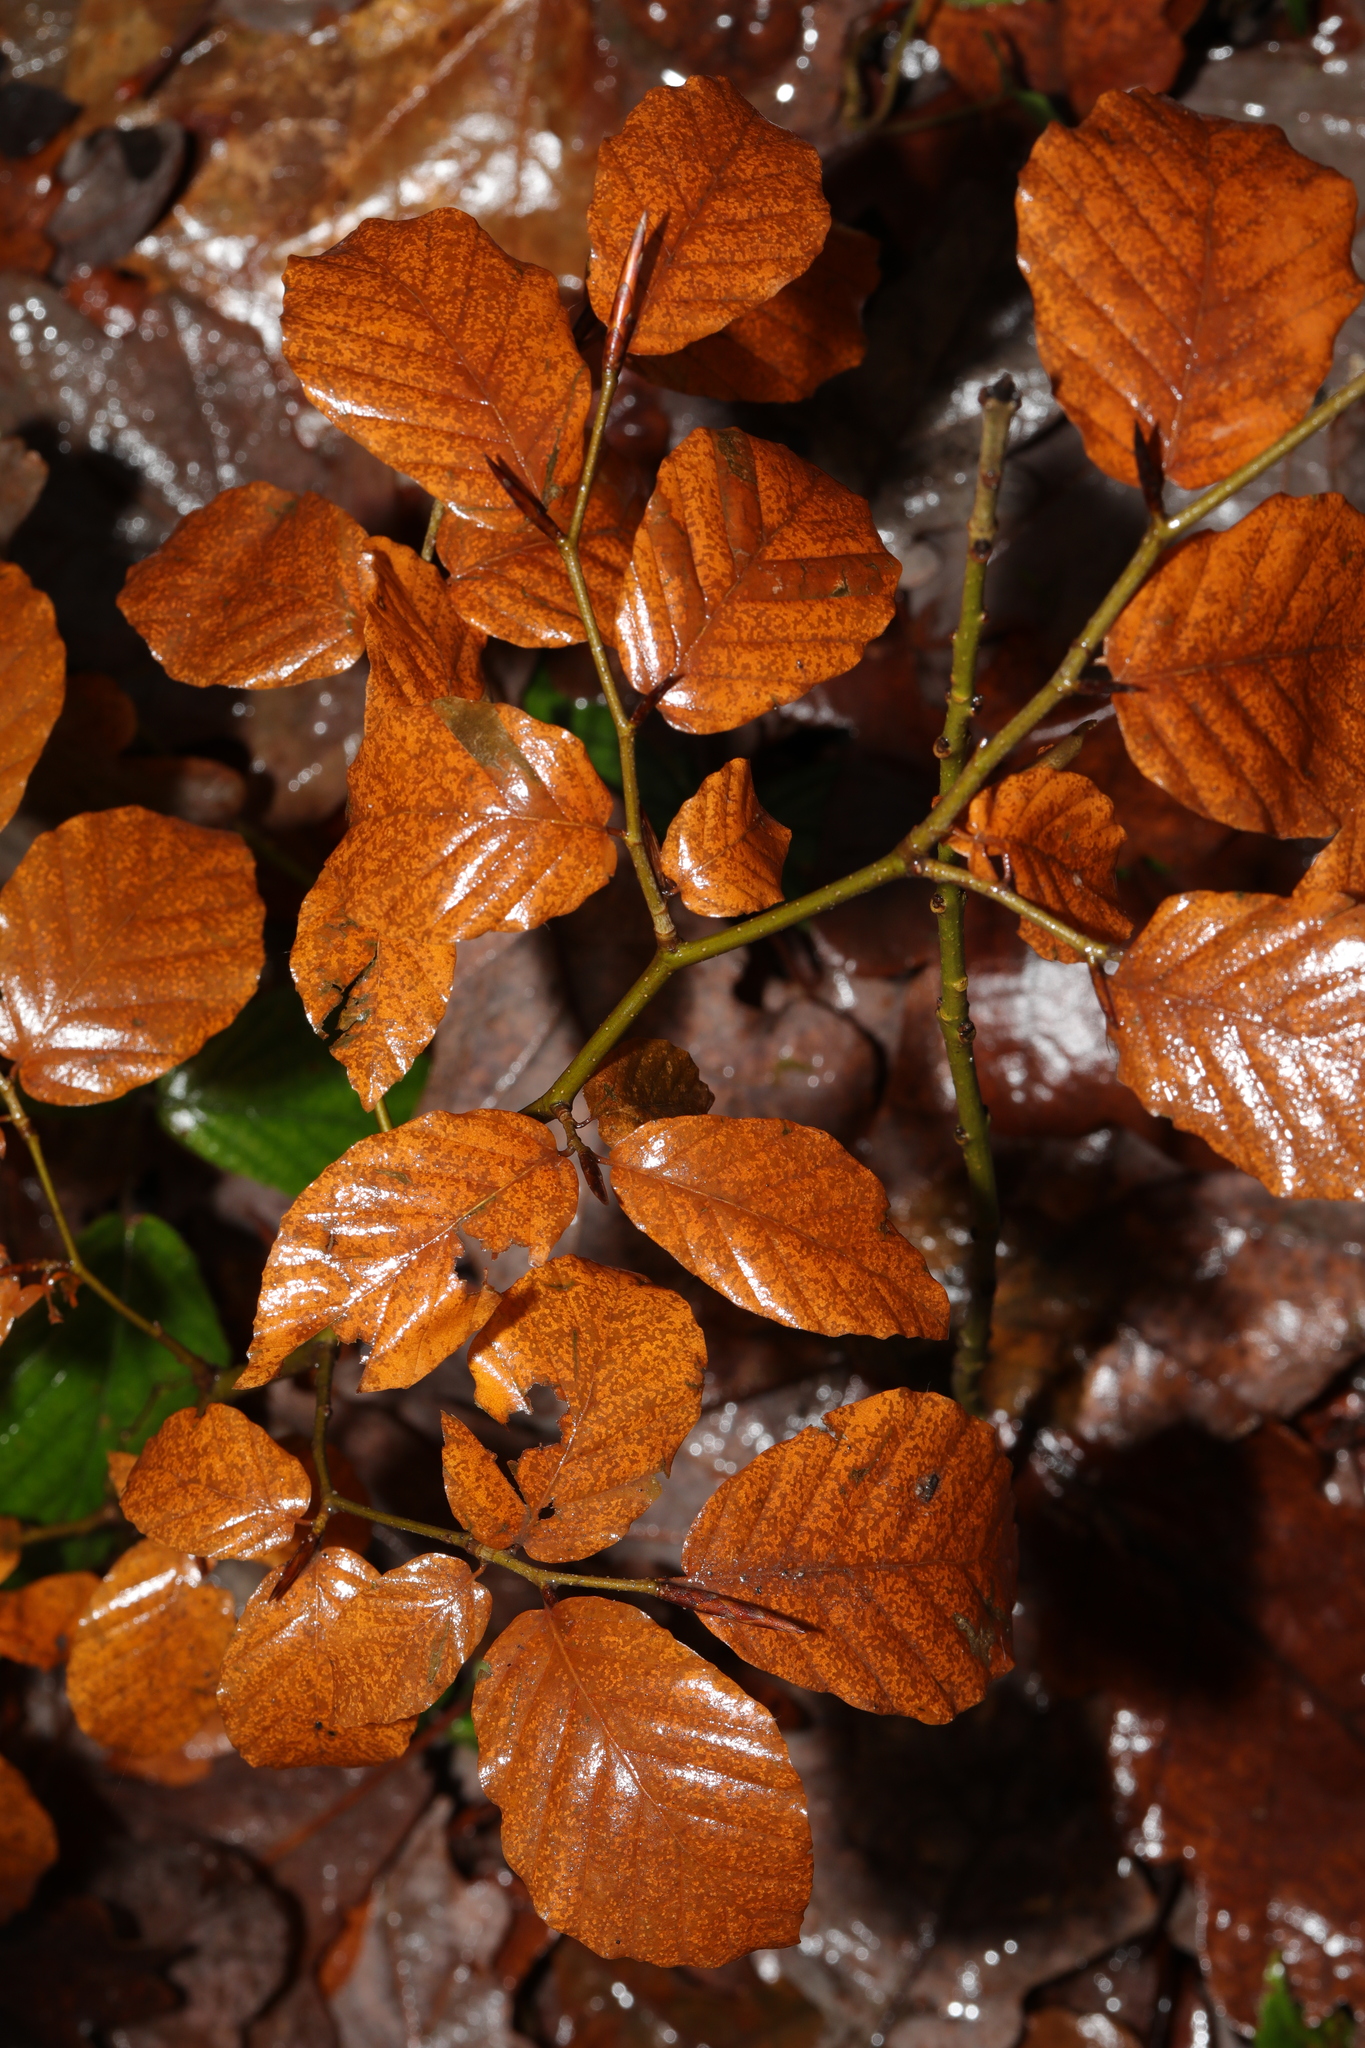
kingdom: Plantae
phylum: Tracheophyta
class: Magnoliopsida
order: Fagales
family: Fagaceae
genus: Fagus
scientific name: Fagus sylvatica
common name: Beech
